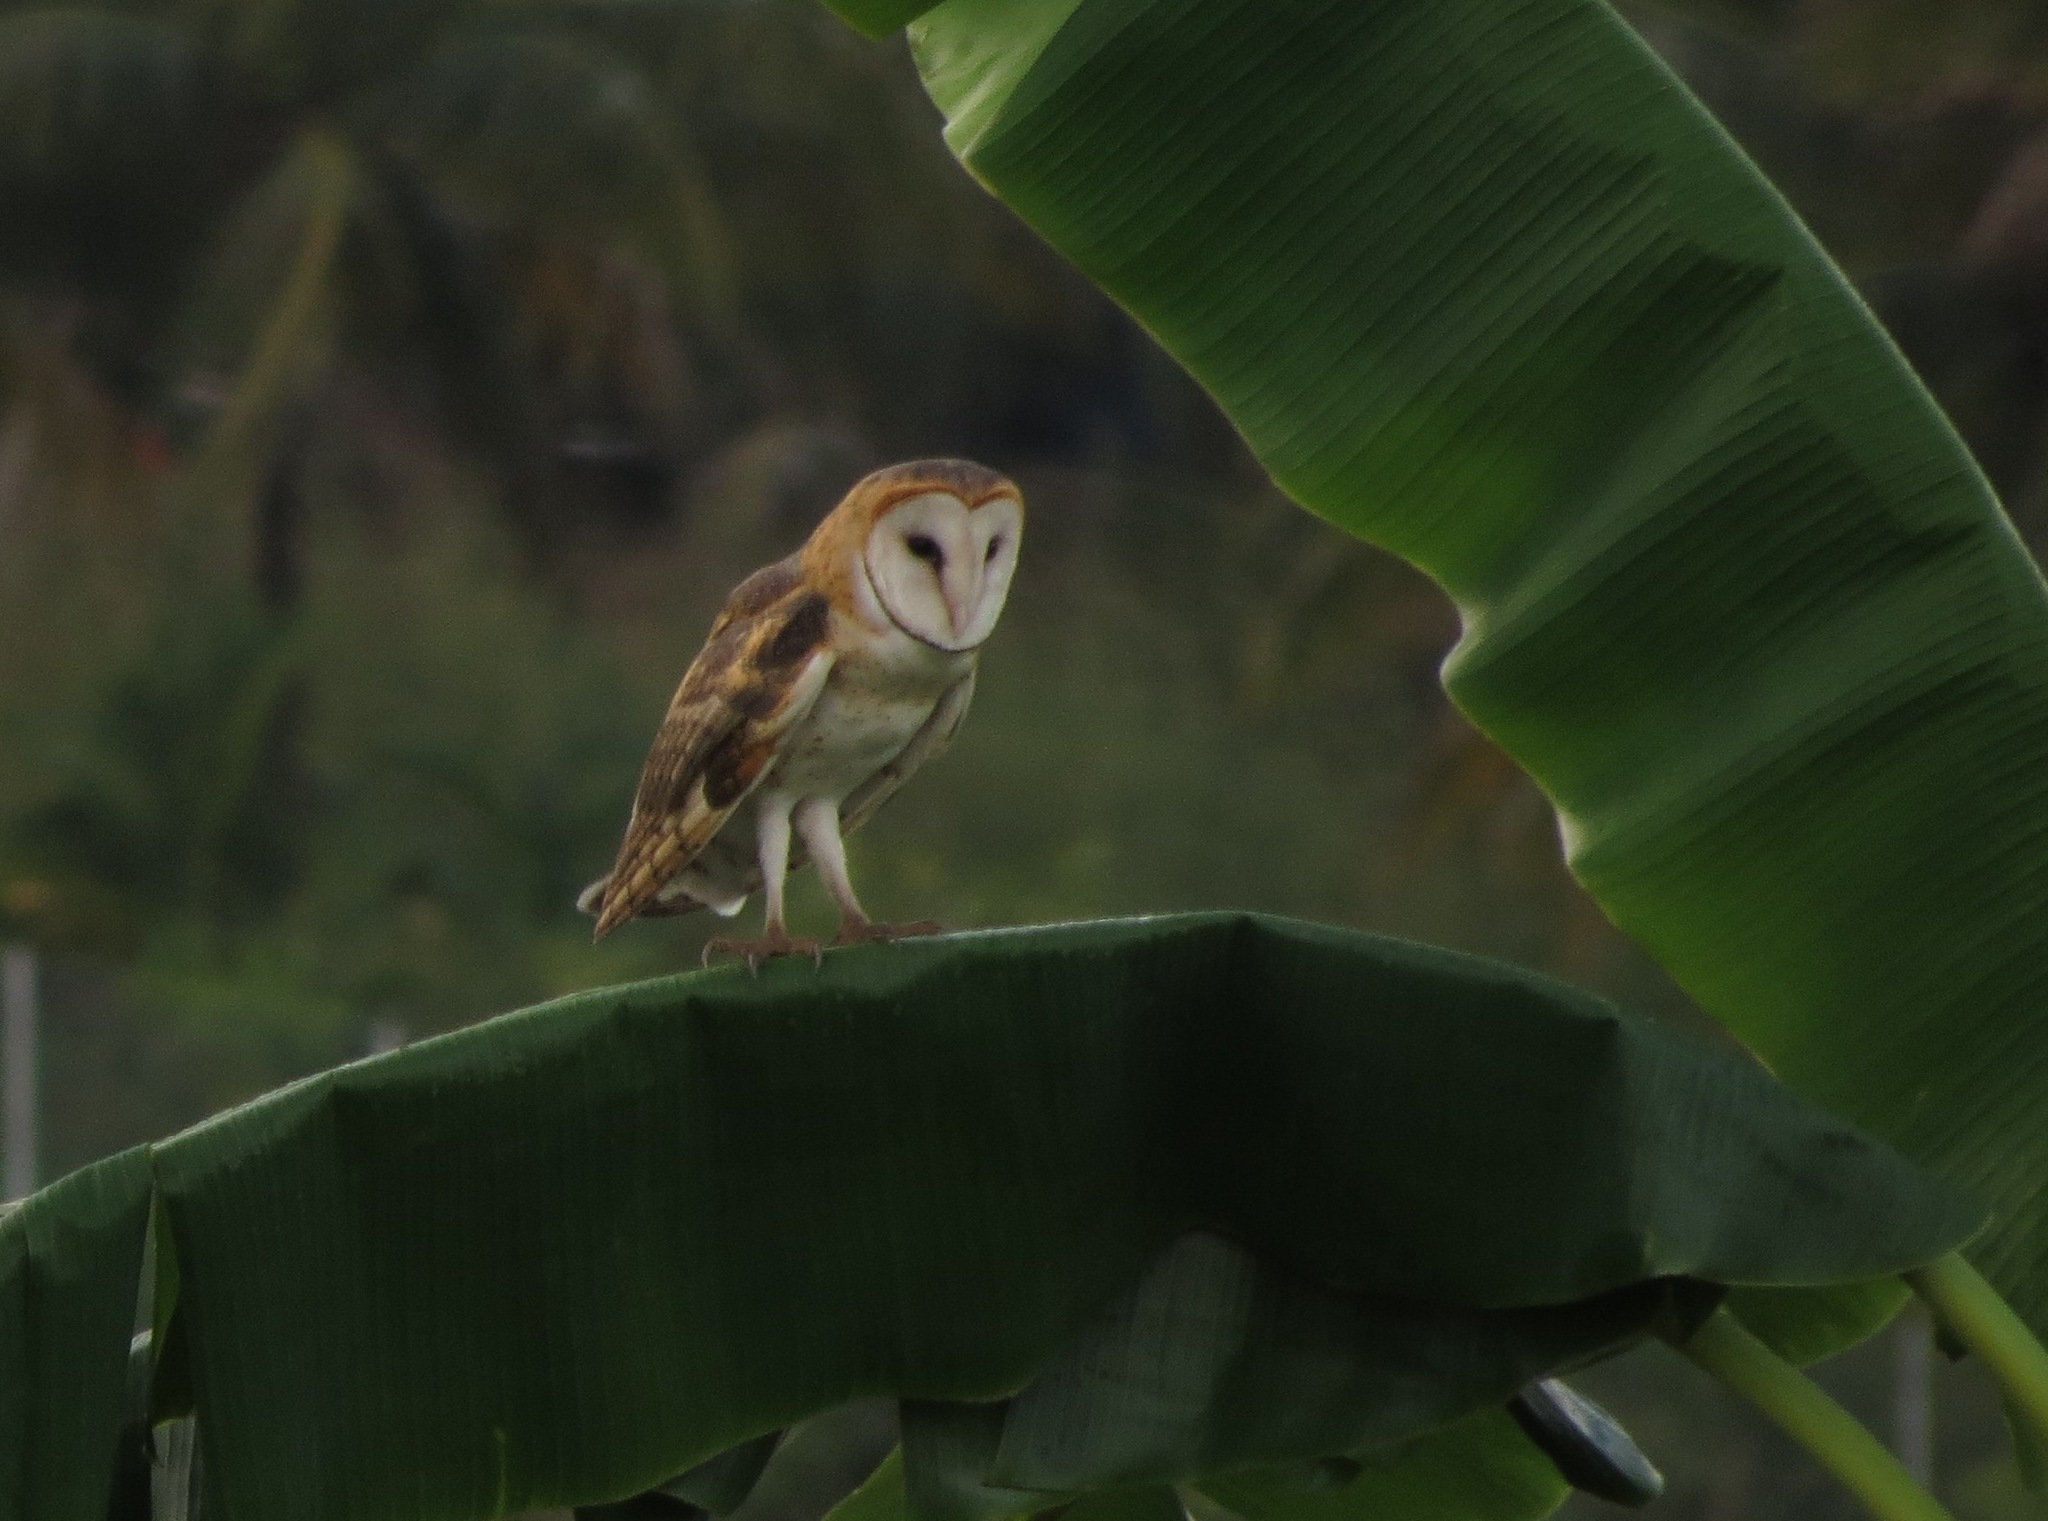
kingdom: Animalia
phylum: Chordata
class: Aves
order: Strigiformes
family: Tytonidae
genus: Tyto
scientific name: Tyto furcata
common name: American barn owl
